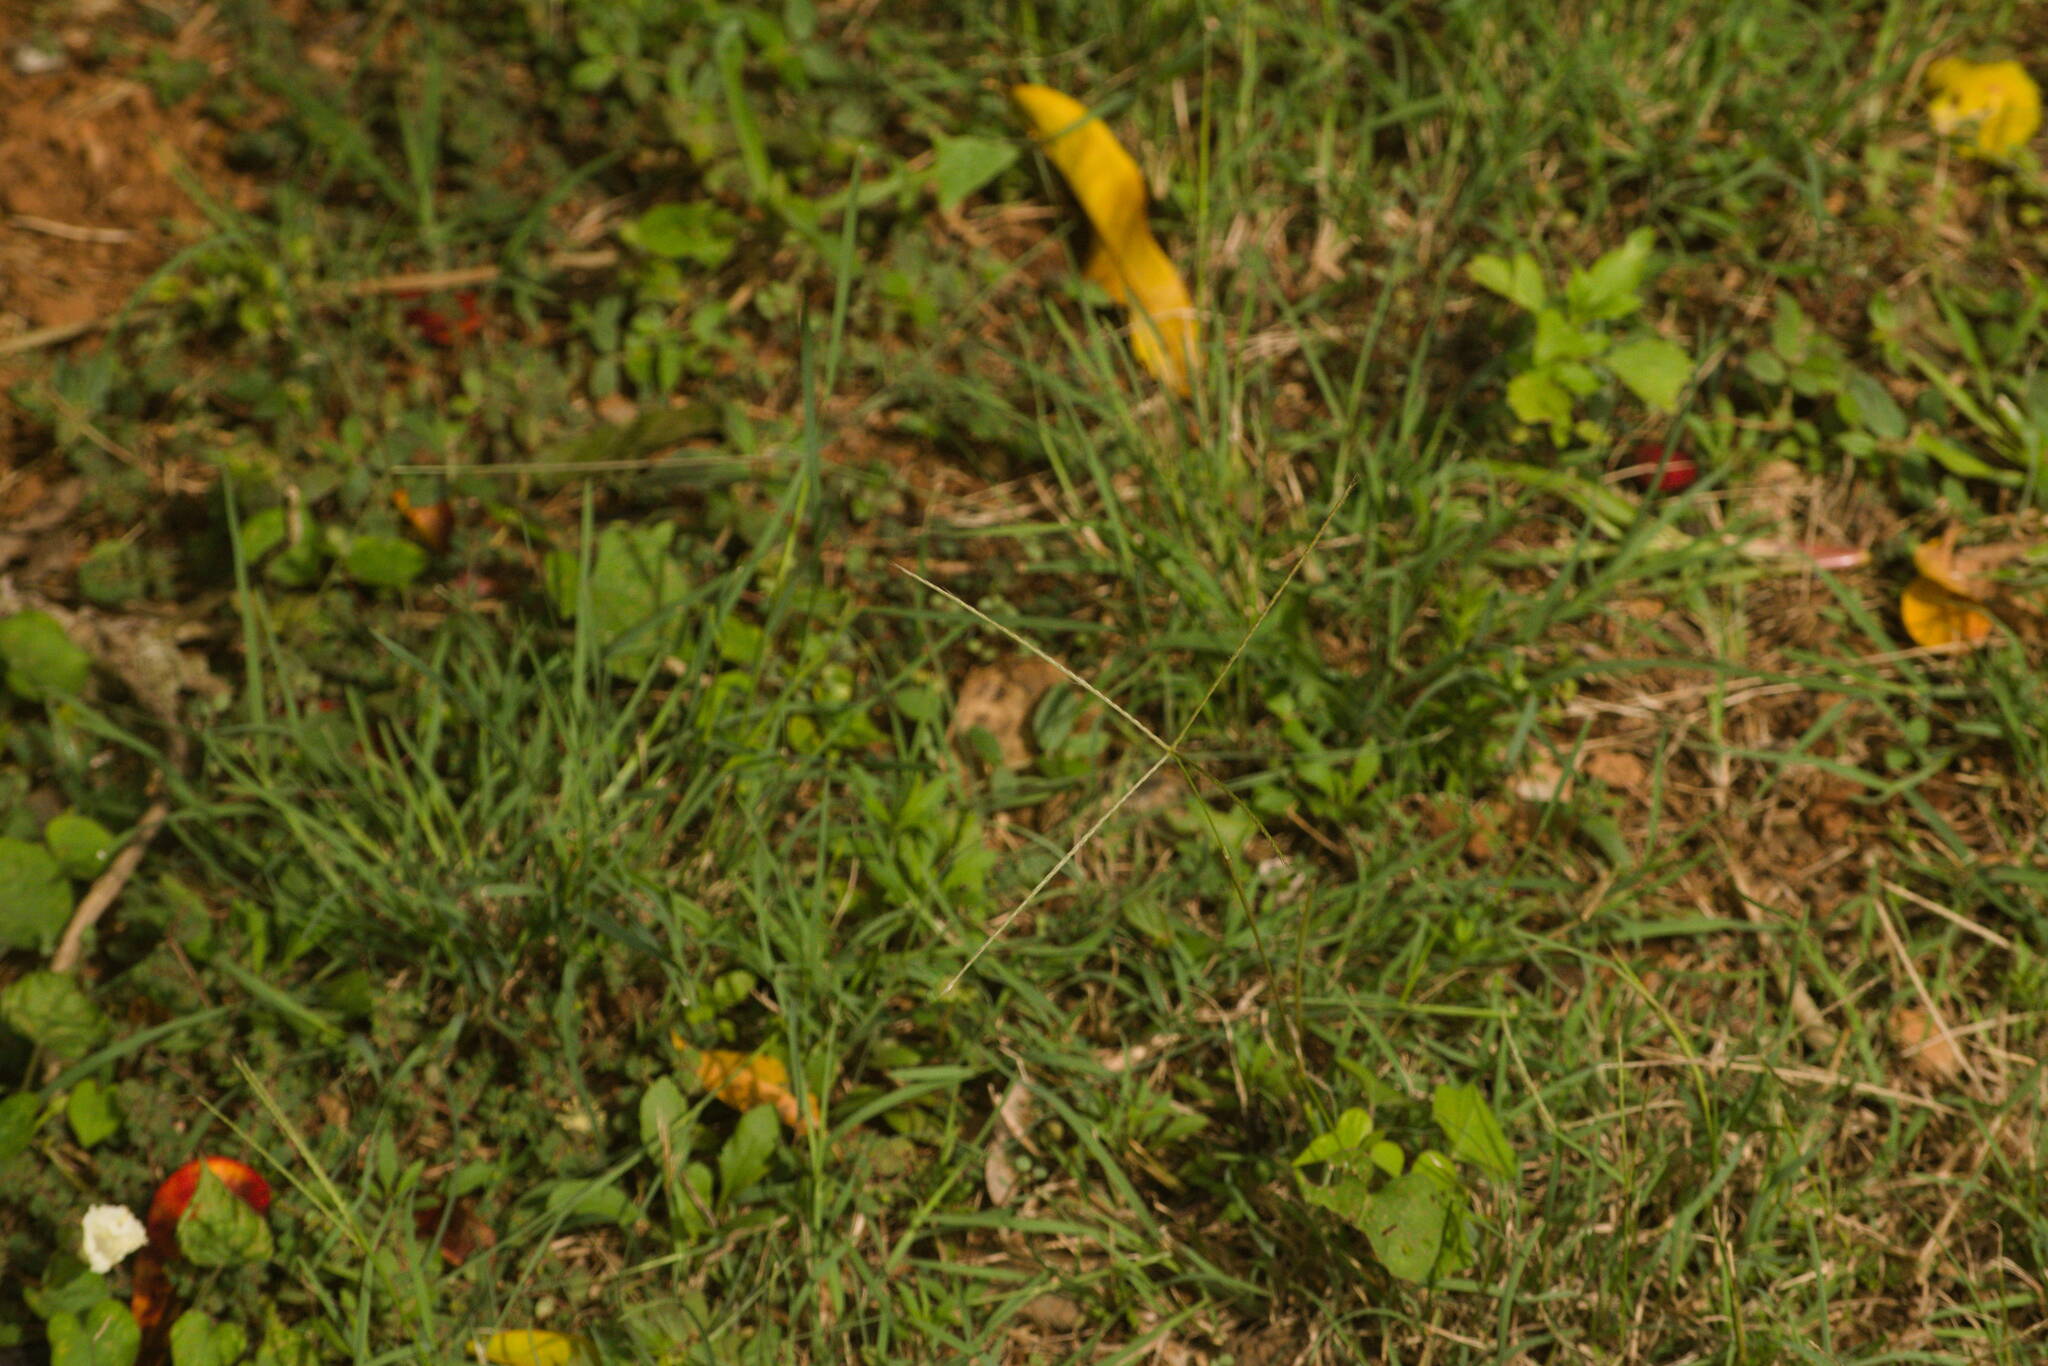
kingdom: Plantae
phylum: Tracheophyta
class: Liliopsida
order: Poales
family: Poaceae
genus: Chloris
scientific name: Chloris divaricata
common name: Spreading windmill grass
